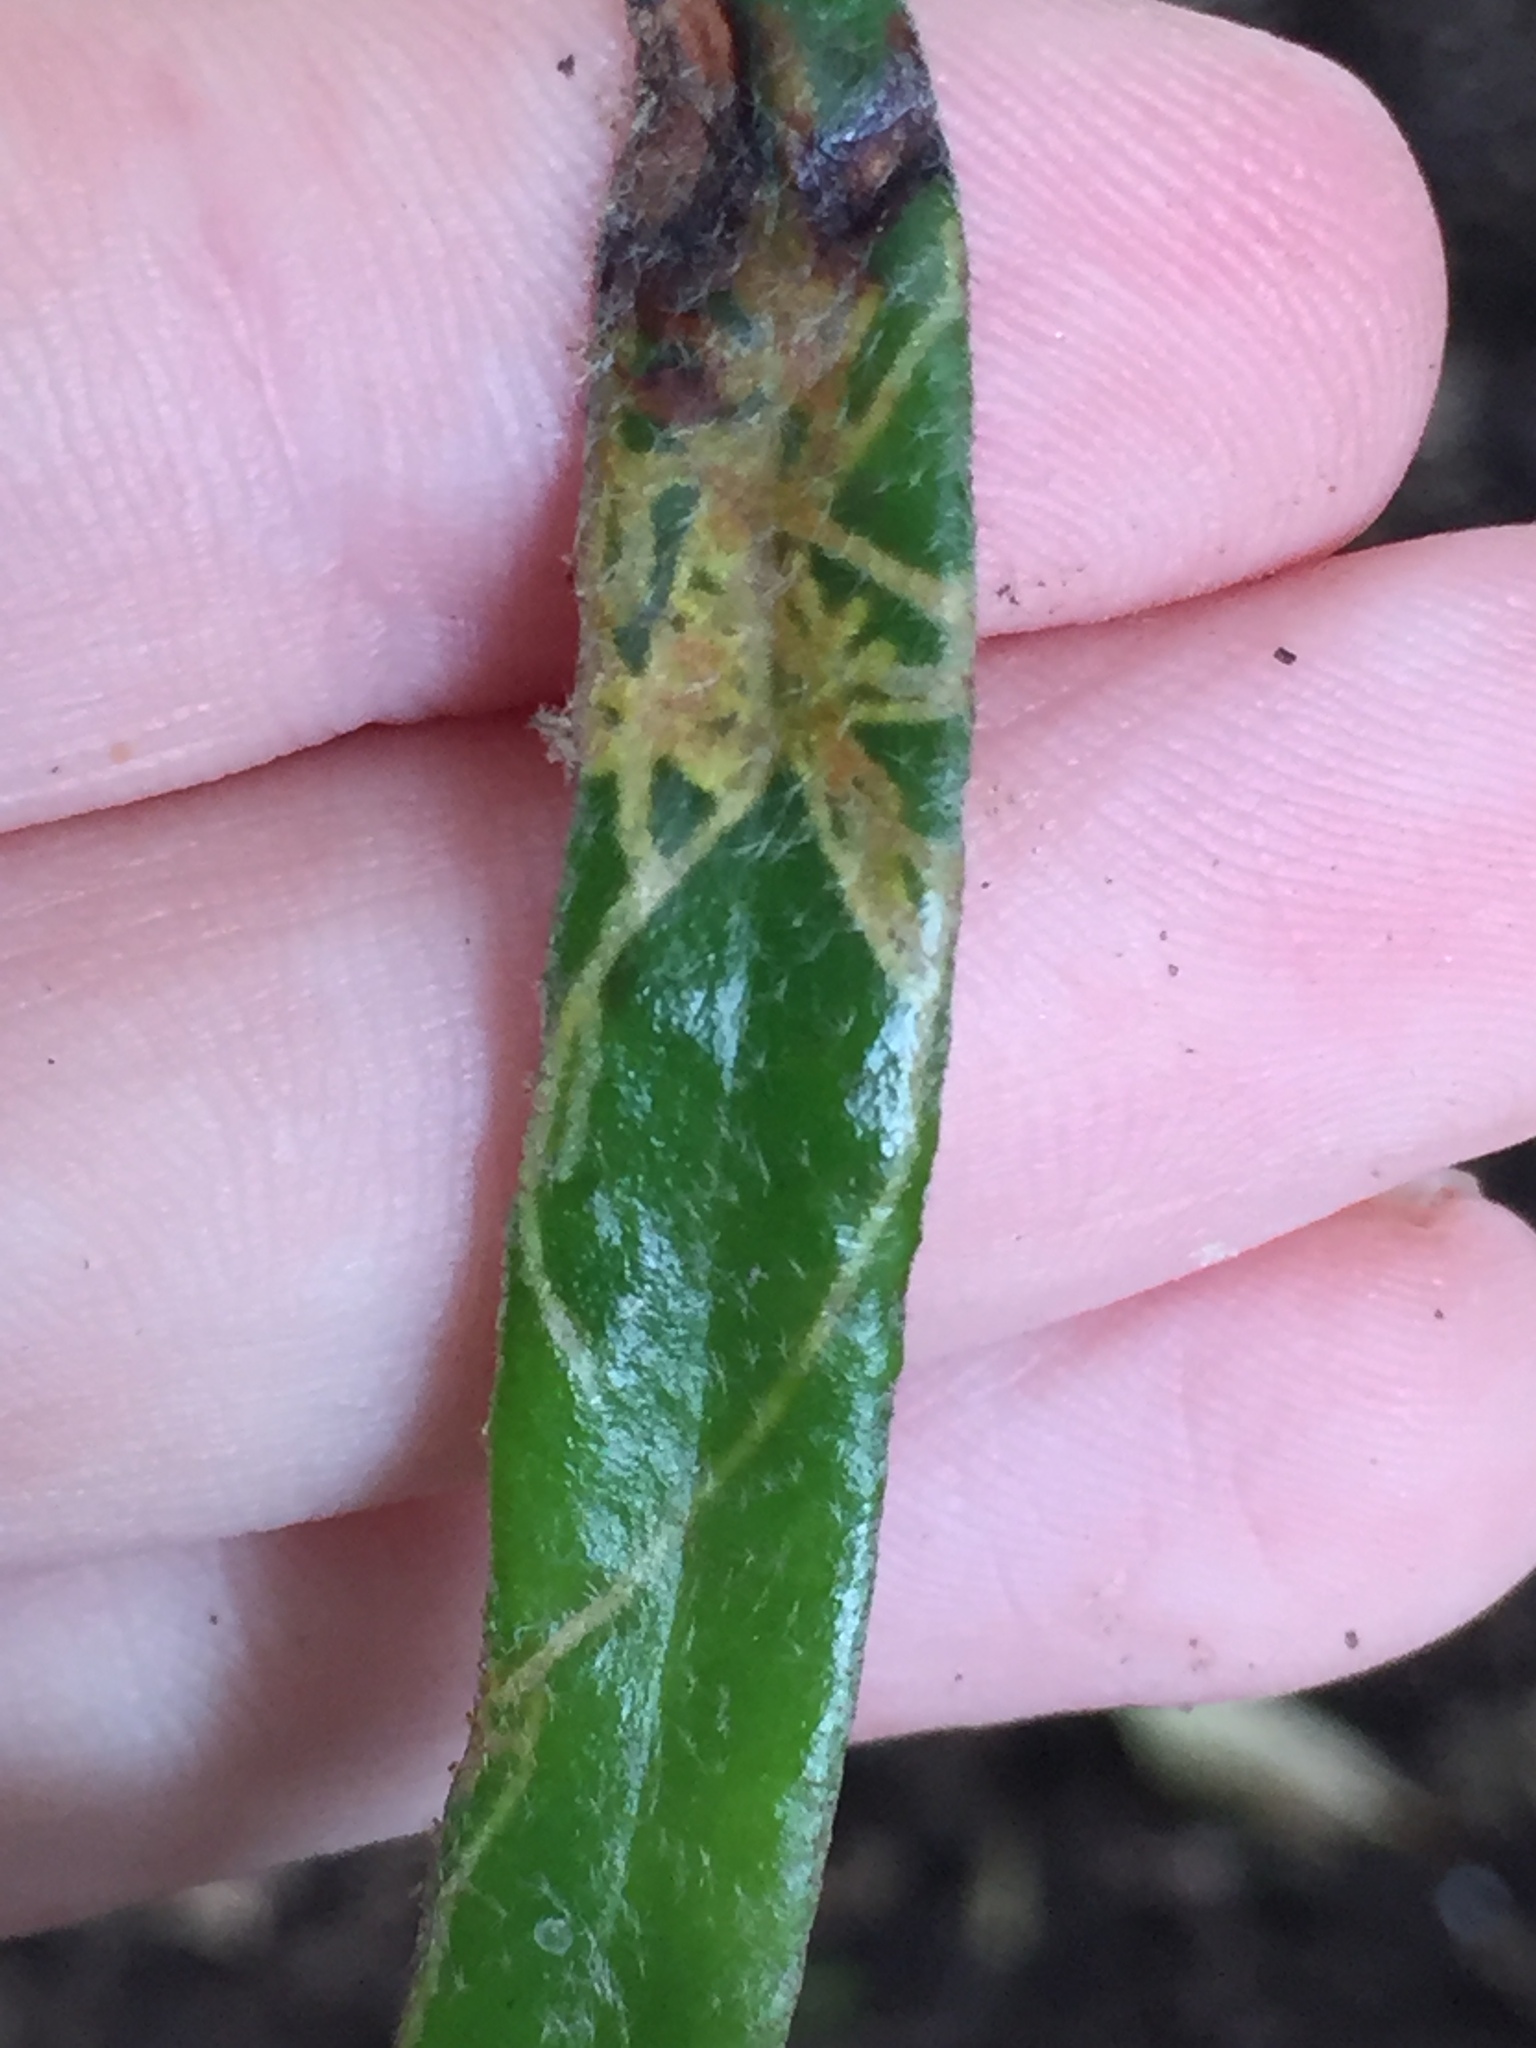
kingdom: Animalia
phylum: Arthropoda
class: Insecta
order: Lepidoptera
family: Tortricidae
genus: Philocryptica
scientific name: Philocryptica polypodii
